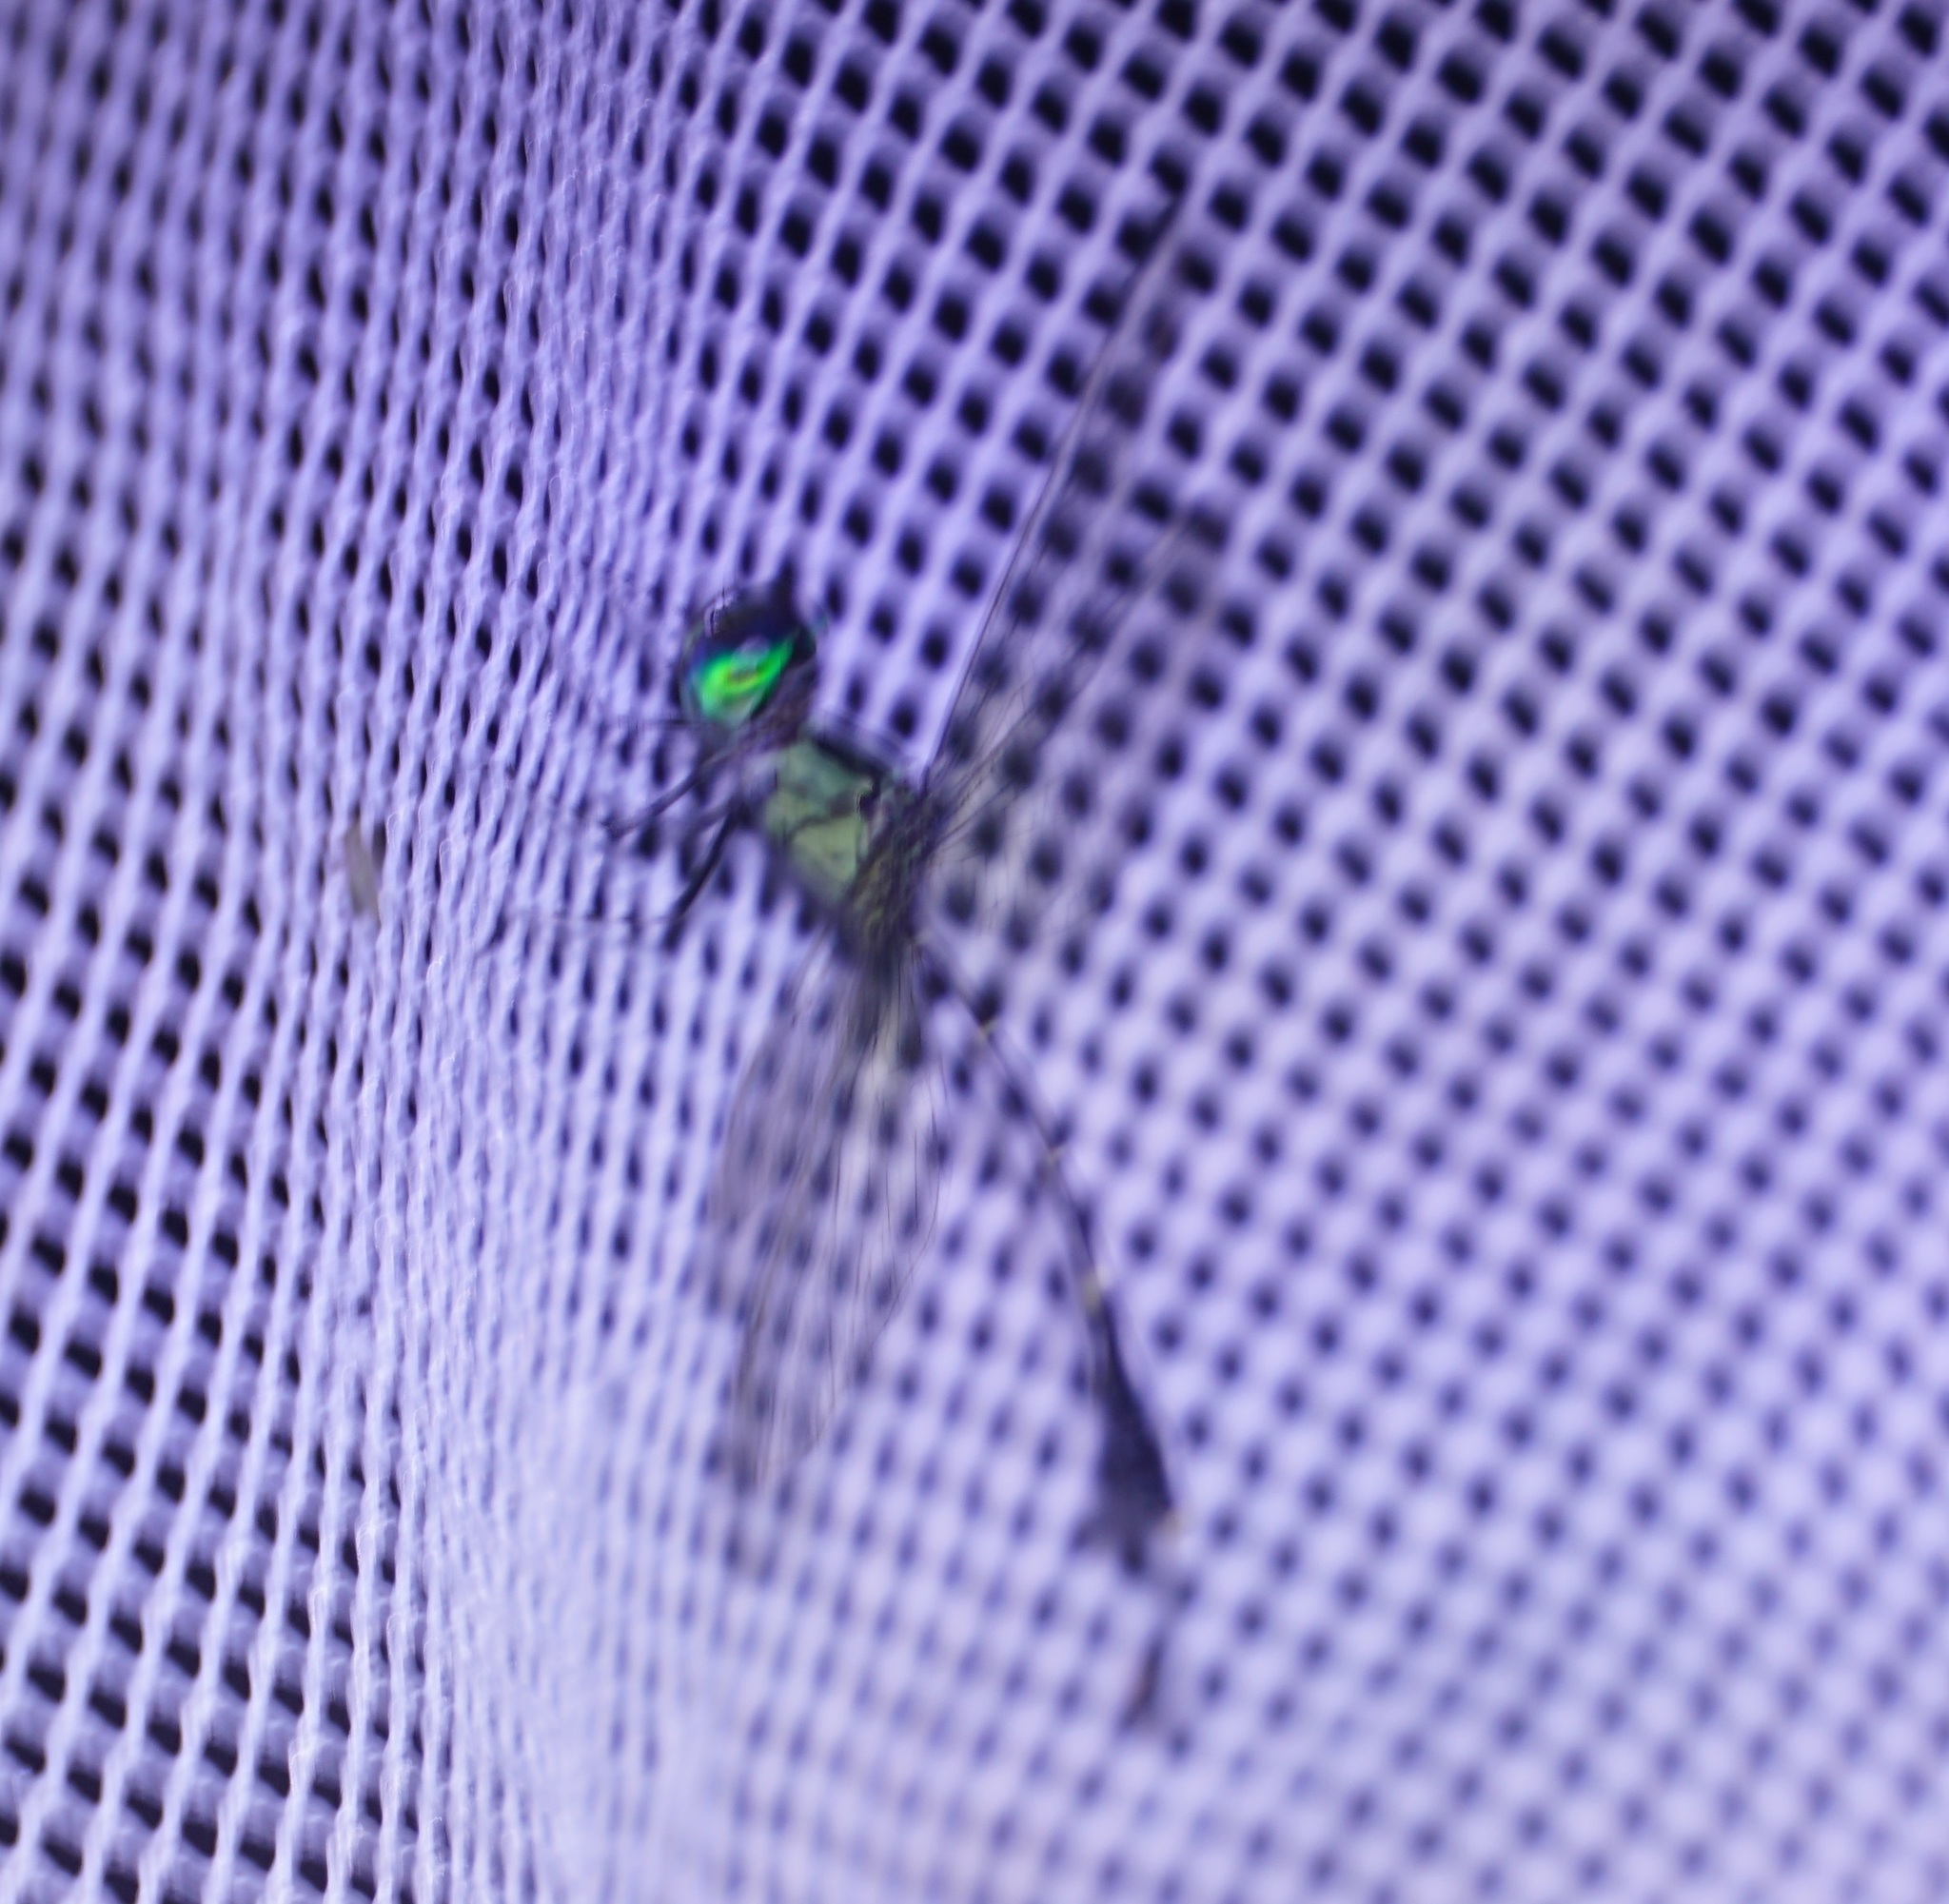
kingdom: Animalia
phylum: Arthropoda
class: Insecta
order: Odonata
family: Libellulidae
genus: Nannophlebia
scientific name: Nannophlebia eludens
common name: Elusive archtail
